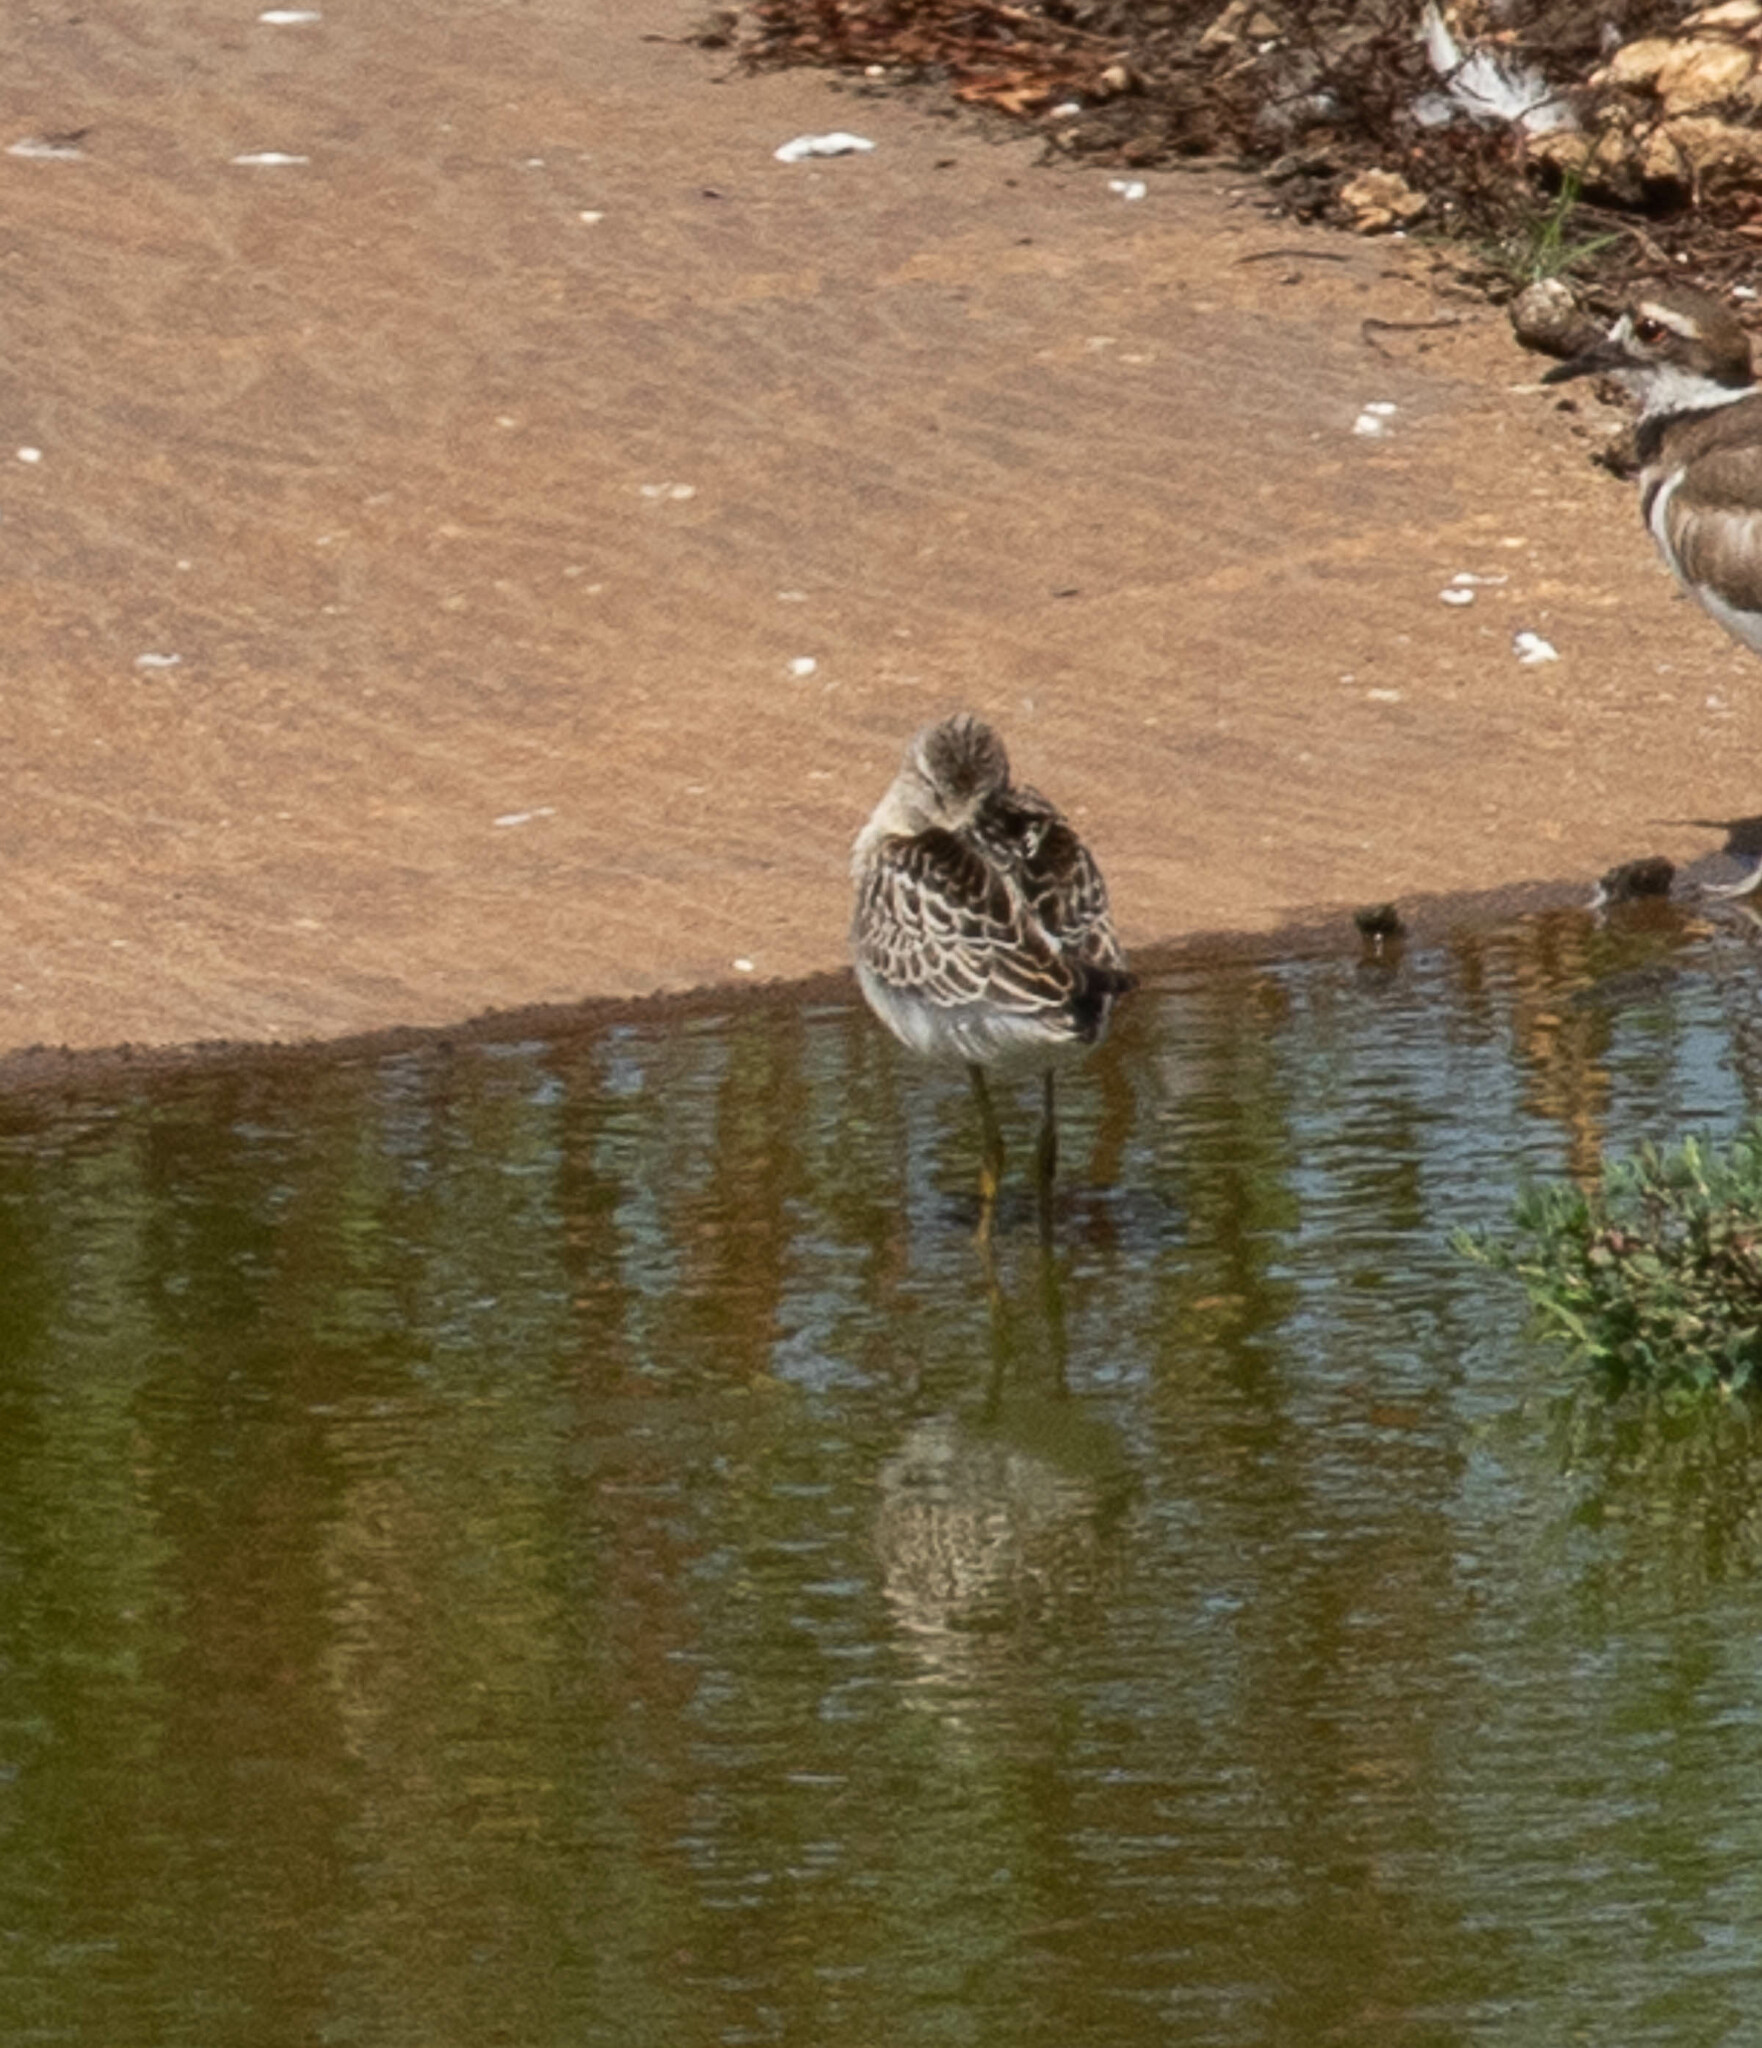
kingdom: Animalia
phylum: Chordata
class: Aves
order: Charadriiformes
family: Scolopacidae
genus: Calidris
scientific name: Calidris himantopus
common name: Stilt sandpiper
